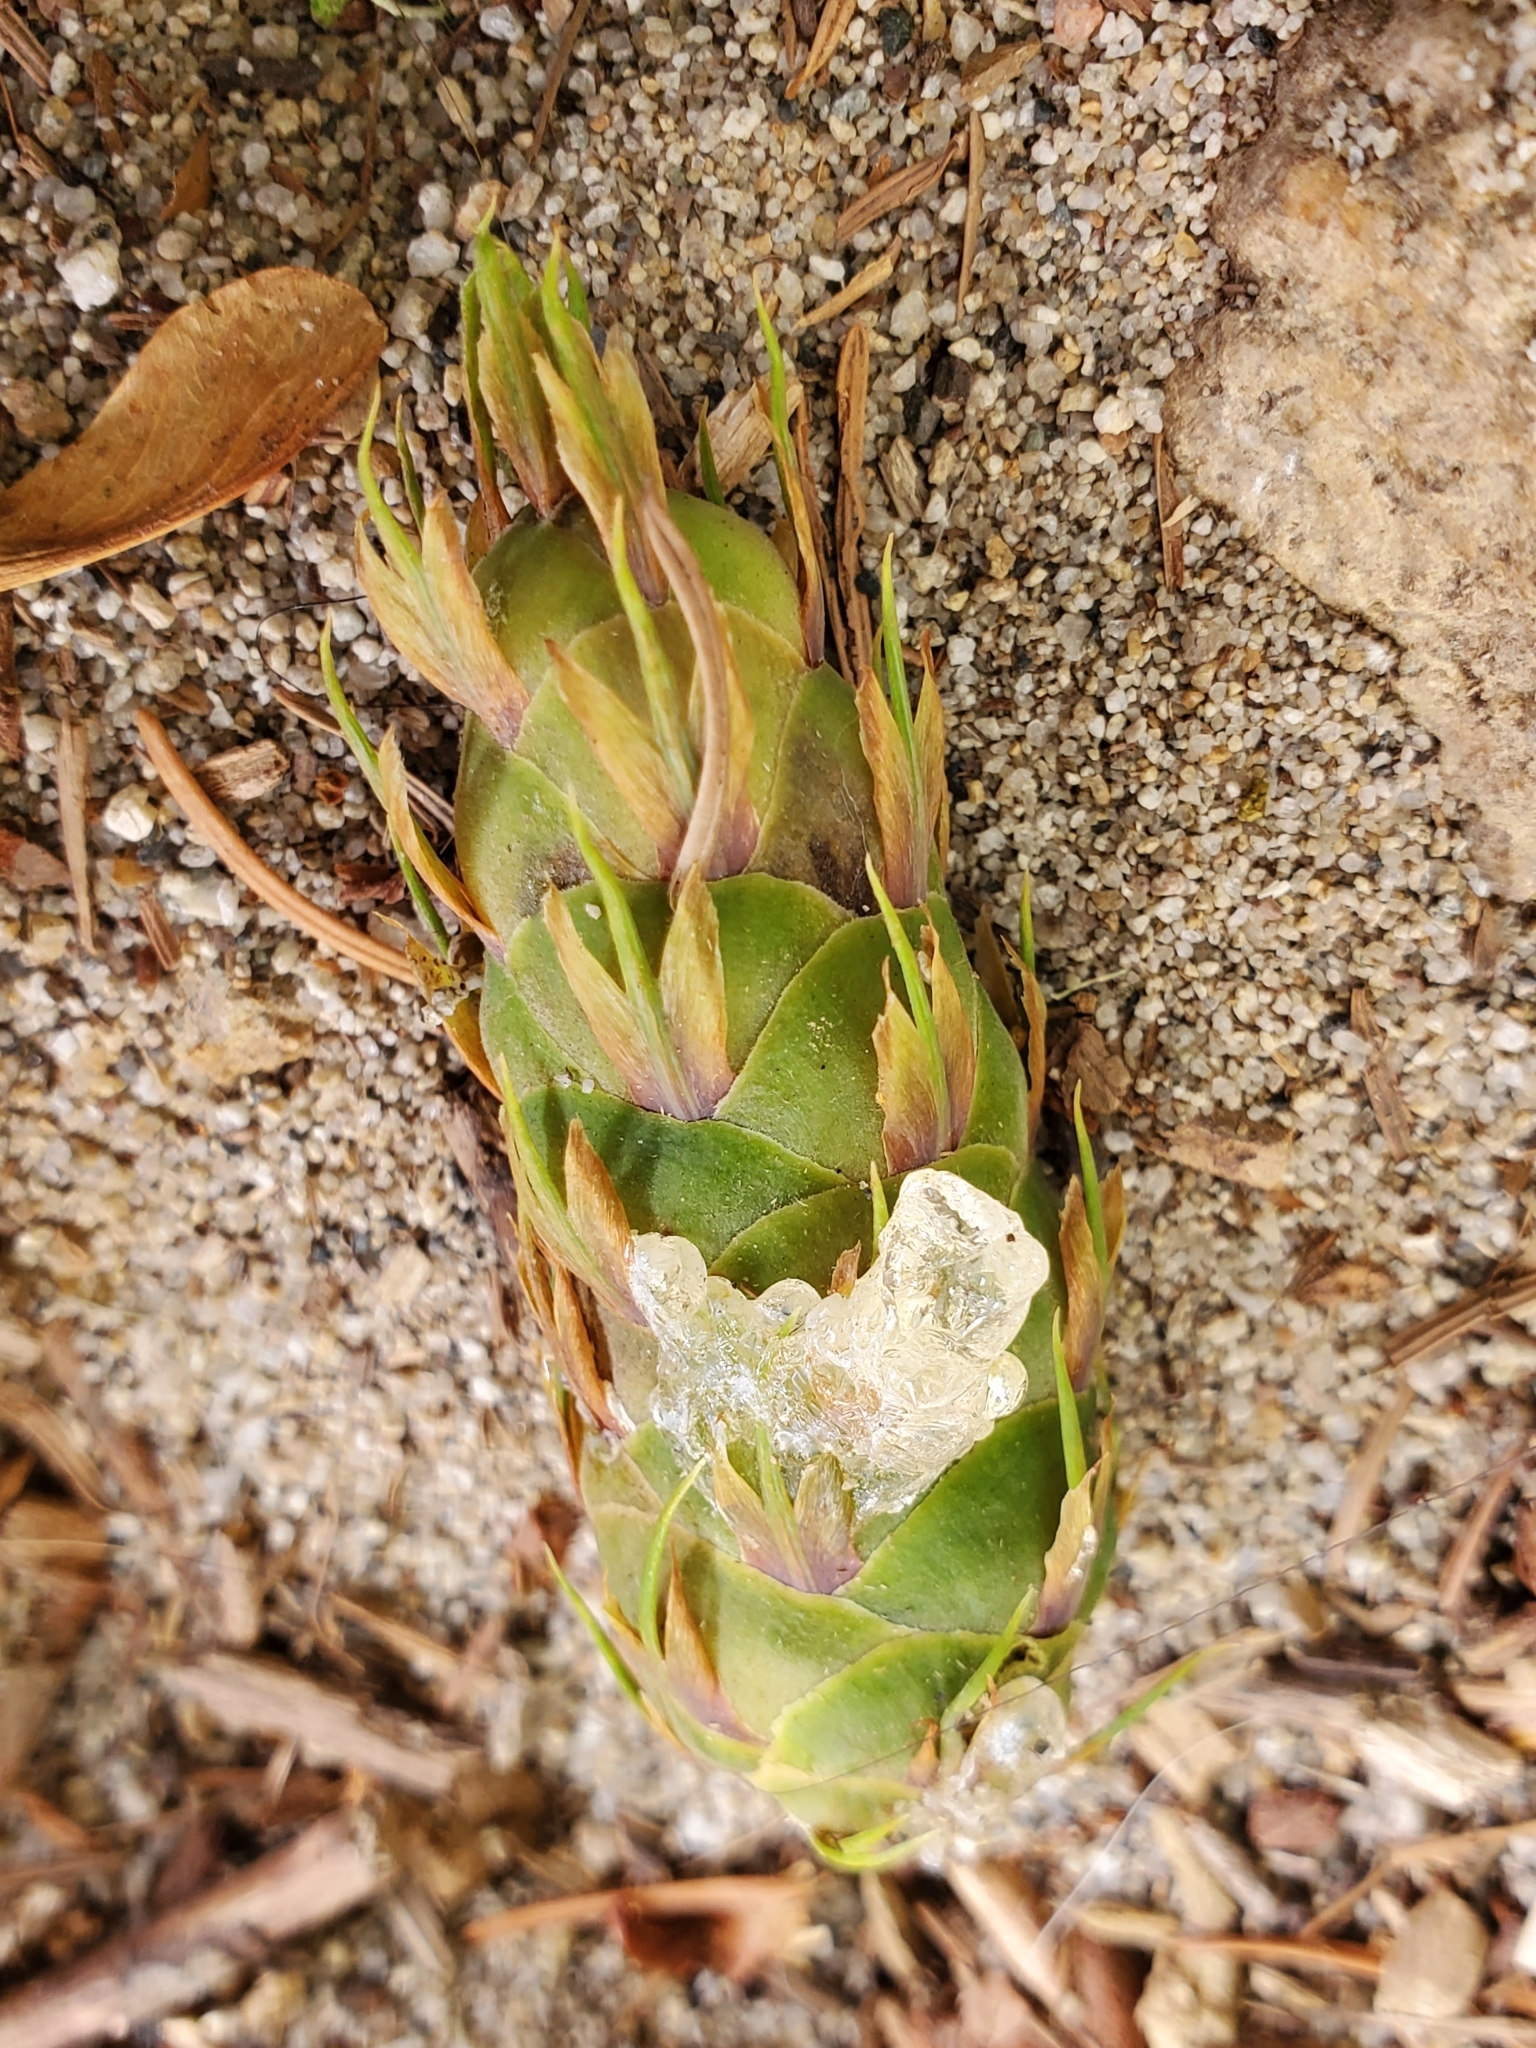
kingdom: Plantae
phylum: Tracheophyta
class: Pinopsida
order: Pinales
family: Pinaceae
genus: Pseudotsuga
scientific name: Pseudotsuga menziesii
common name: Douglas fir
